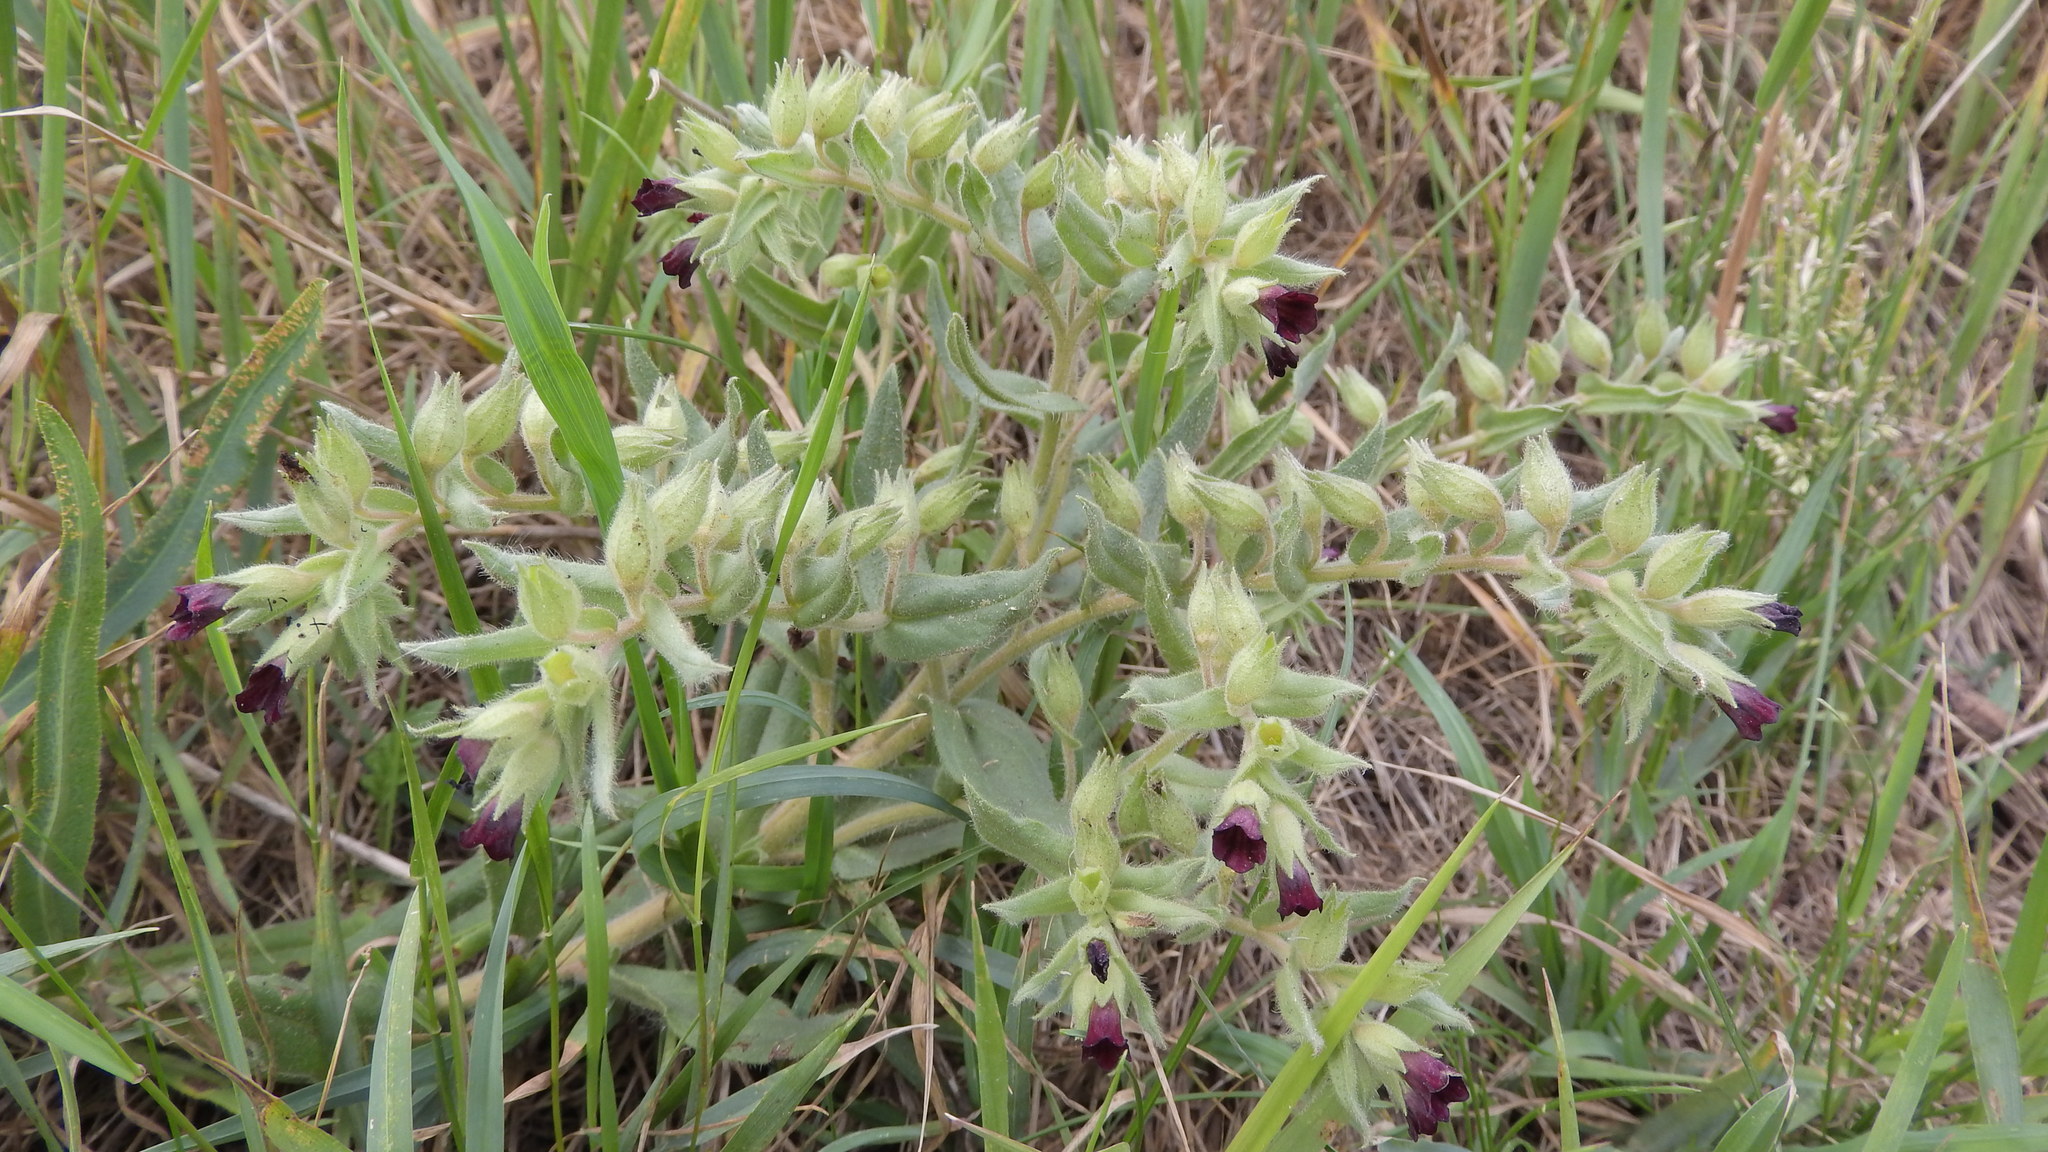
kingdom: Plantae
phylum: Tracheophyta
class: Magnoliopsida
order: Boraginales
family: Boraginaceae
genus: Nonea
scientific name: Nonea pulla
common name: Brown nonea
